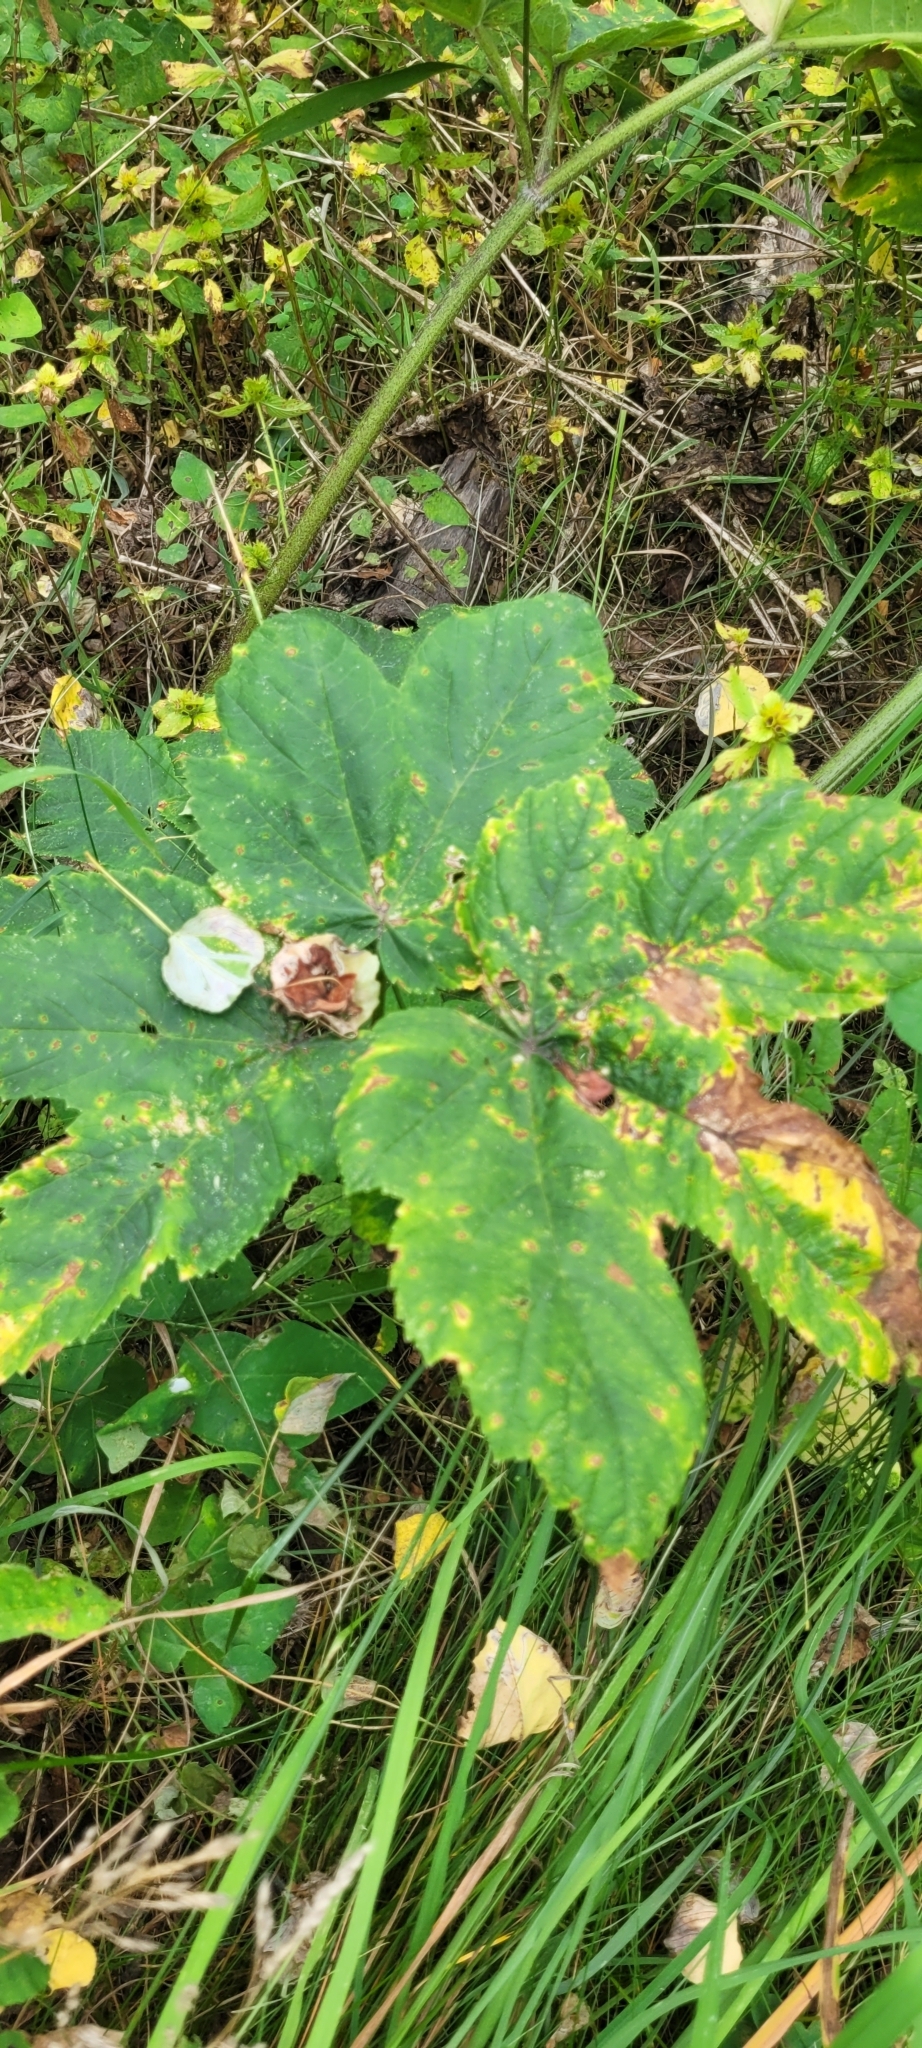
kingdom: Plantae
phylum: Tracheophyta
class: Magnoliopsida
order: Apiales
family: Apiaceae
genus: Heracleum
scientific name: Heracleum maximum
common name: American cow parsnip
